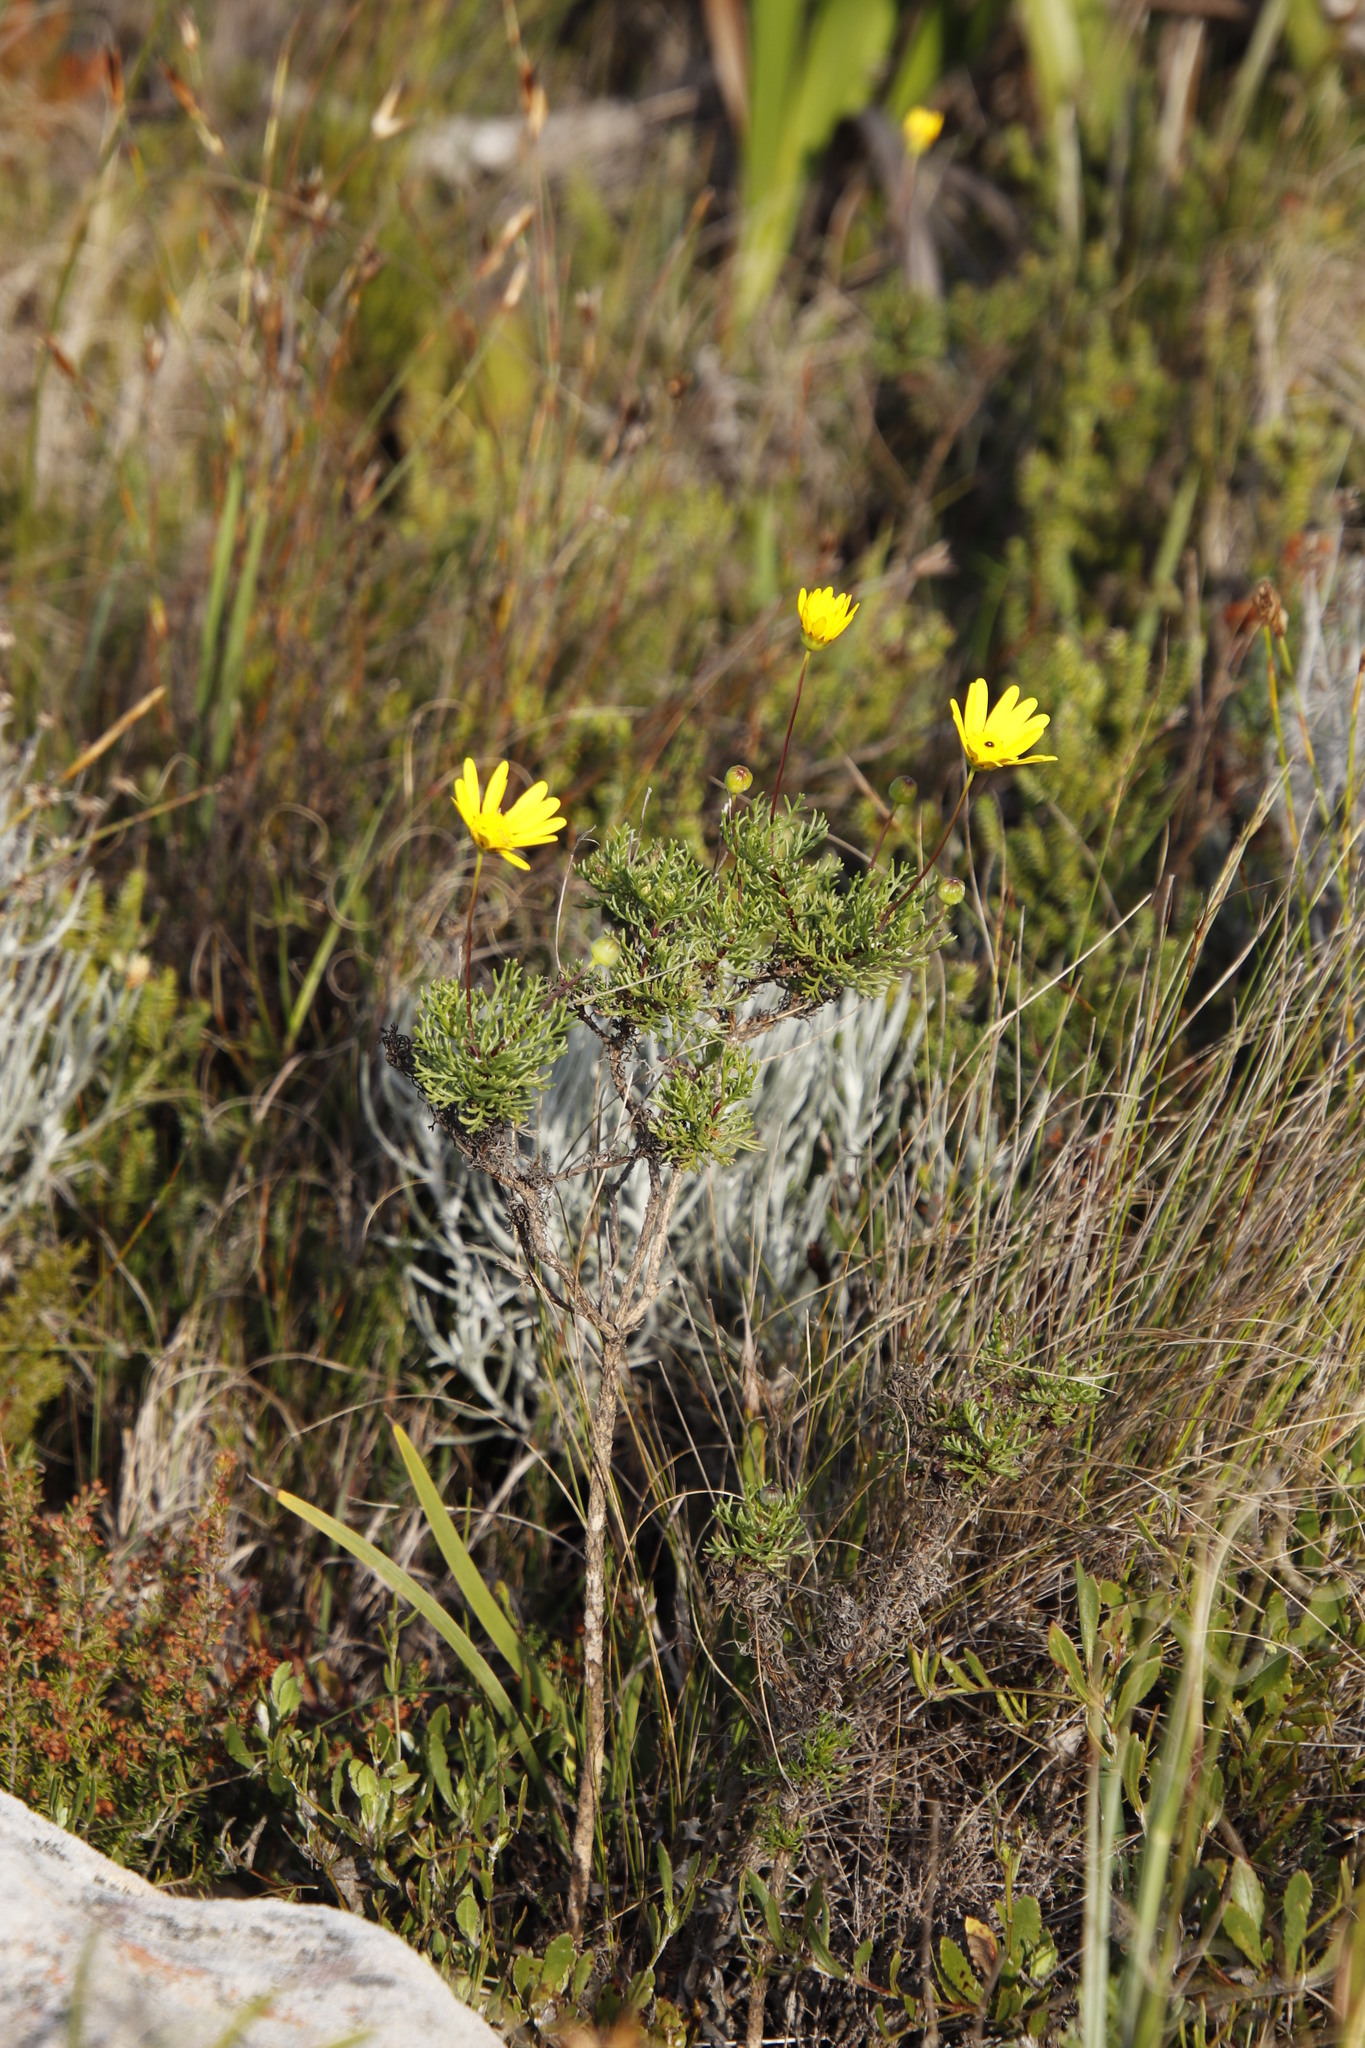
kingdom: Plantae
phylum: Tracheophyta
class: Magnoliopsida
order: Asterales
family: Asteraceae
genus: Euryops
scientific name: Euryops abrotanifolius
